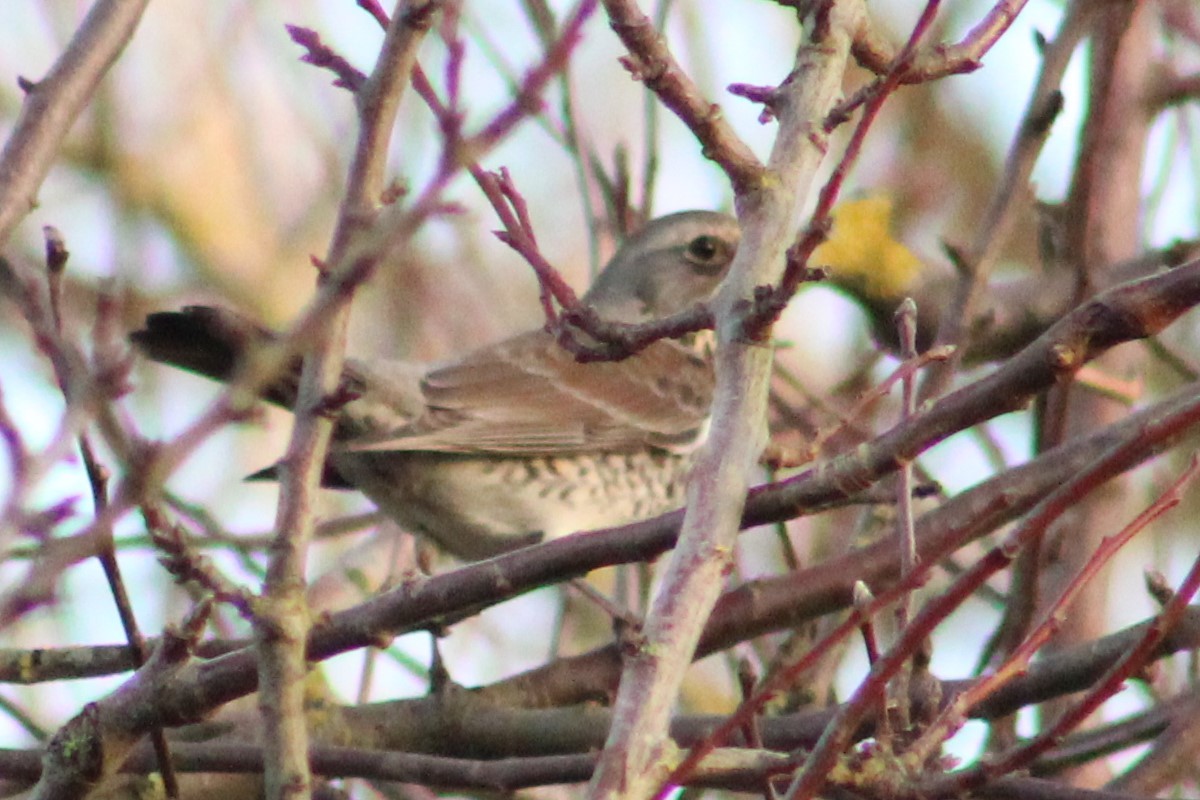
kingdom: Animalia
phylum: Chordata
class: Aves
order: Passeriformes
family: Turdidae
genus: Turdus
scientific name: Turdus pilaris
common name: Fieldfare
